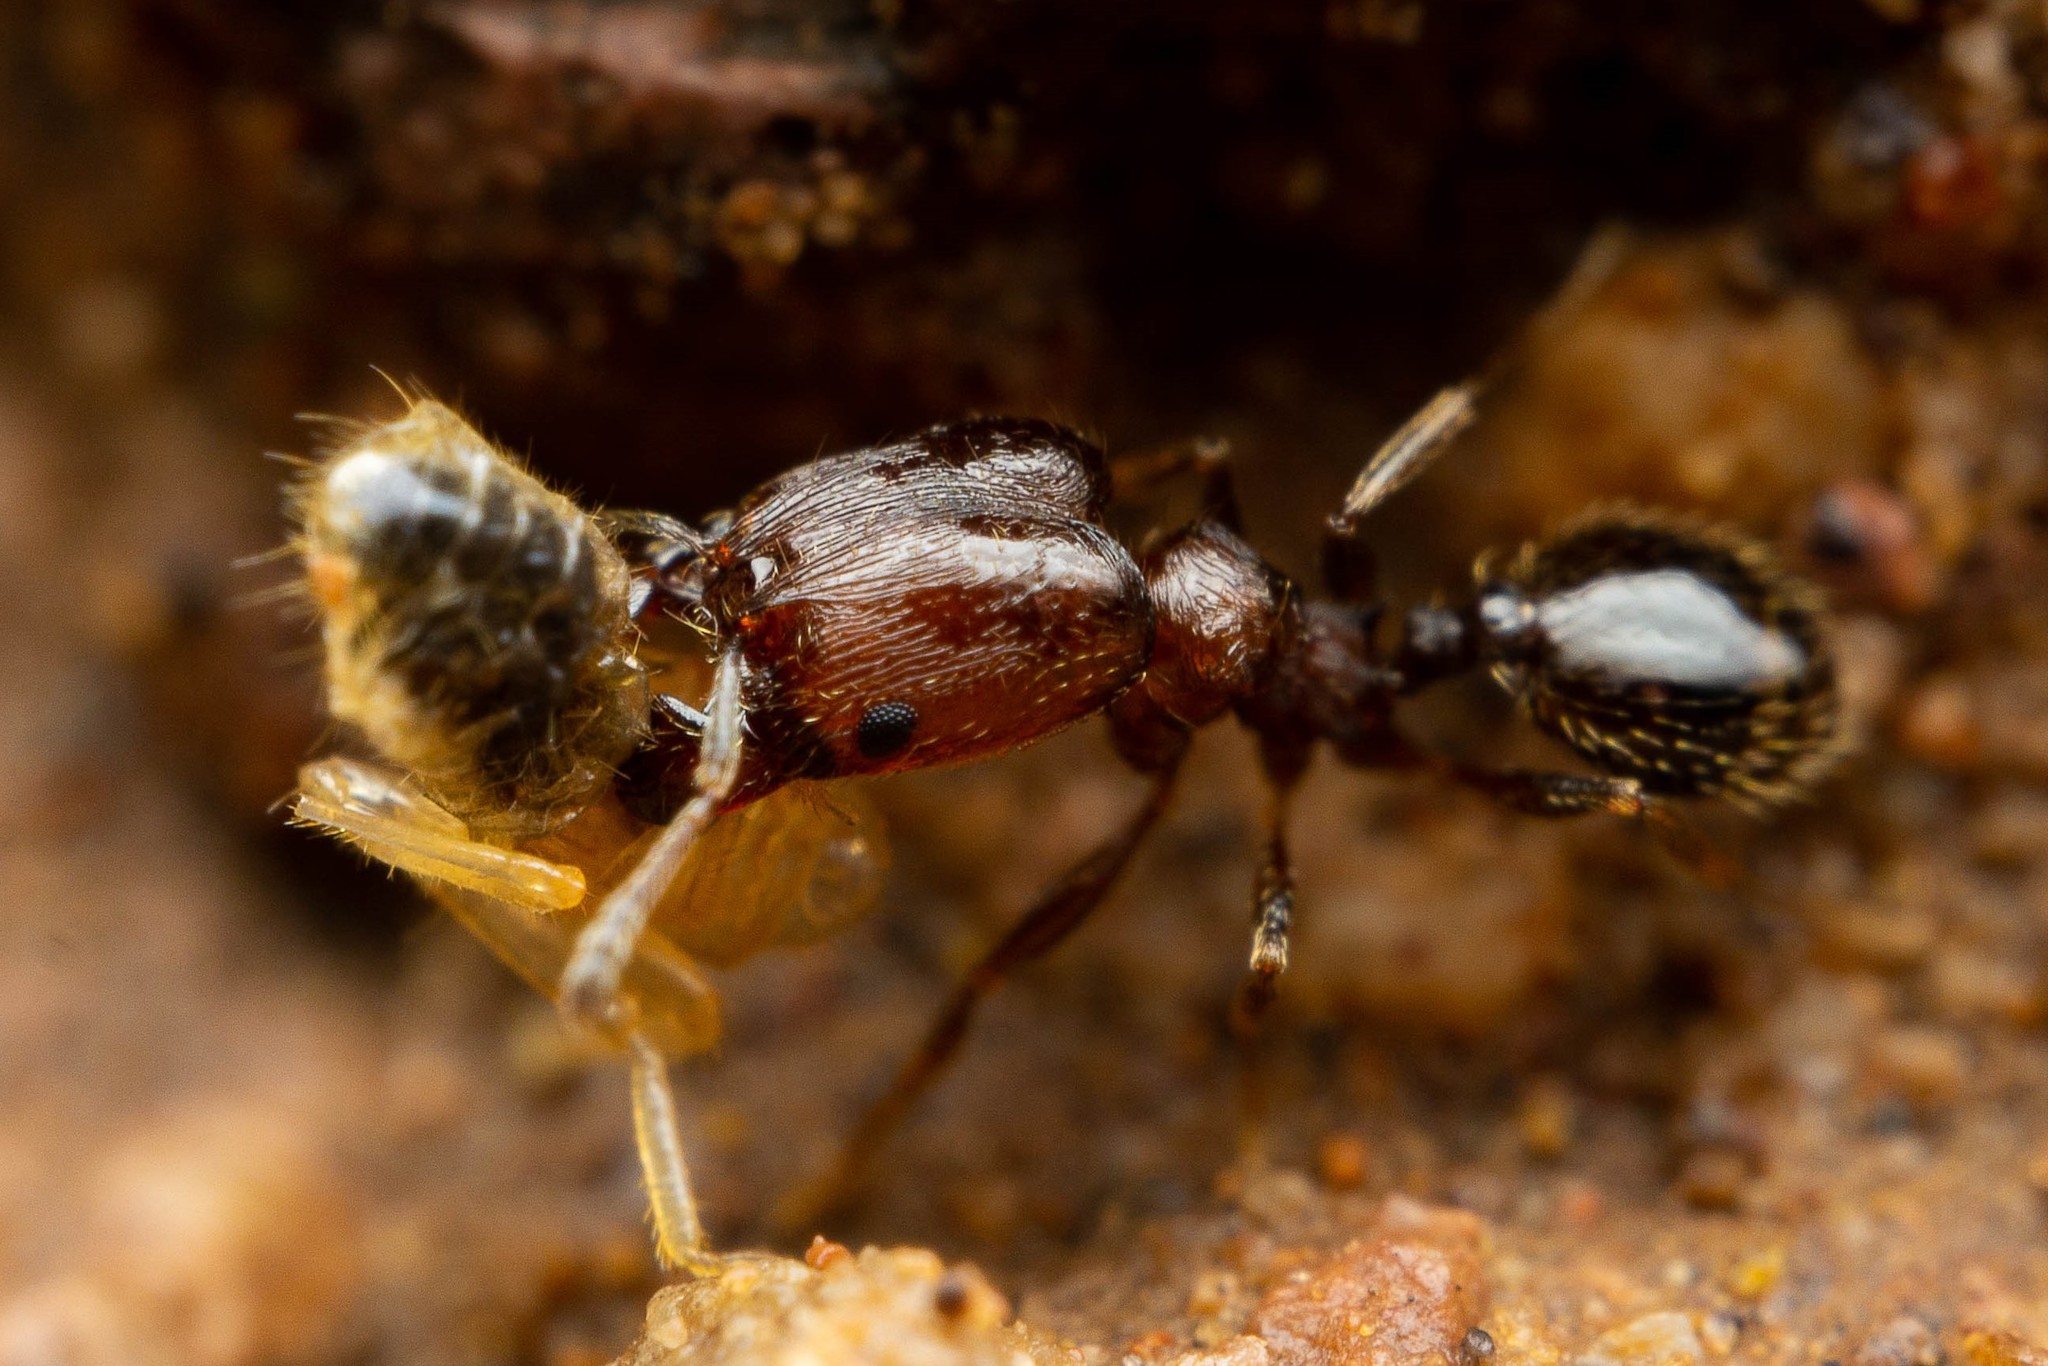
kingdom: Animalia
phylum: Arthropoda
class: Insecta
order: Hymenoptera
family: Formicidae
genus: Pheidole
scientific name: Pheidole rugulosa
